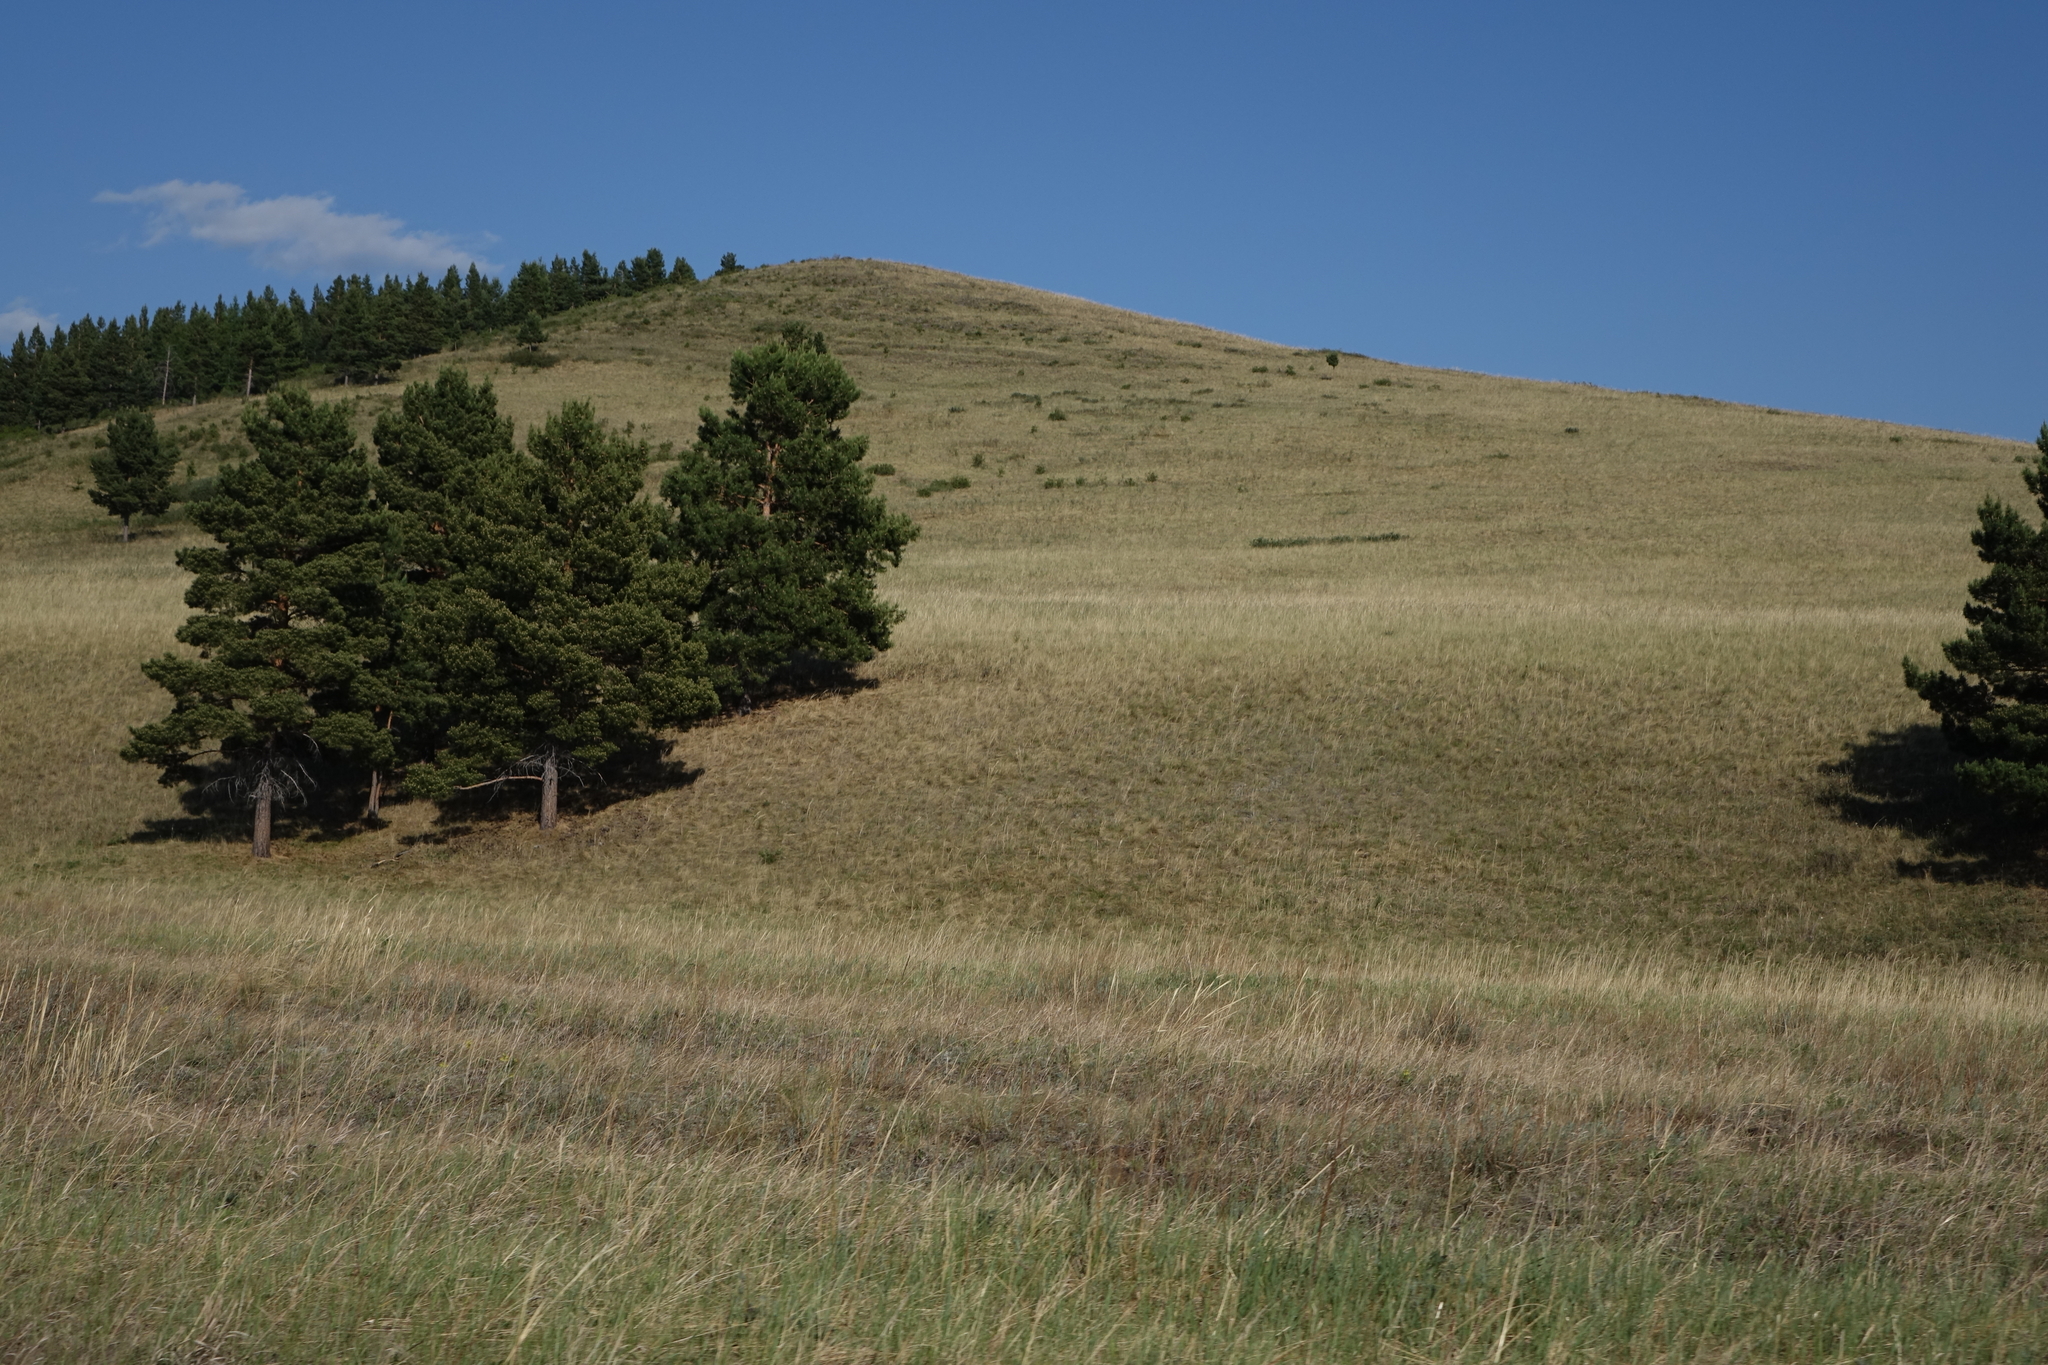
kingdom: Plantae
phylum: Tracheophyta
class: Pinopsida
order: Pinales
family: Pinaceae
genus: Pinus
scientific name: Pinus sylvestris
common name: Scots pine
